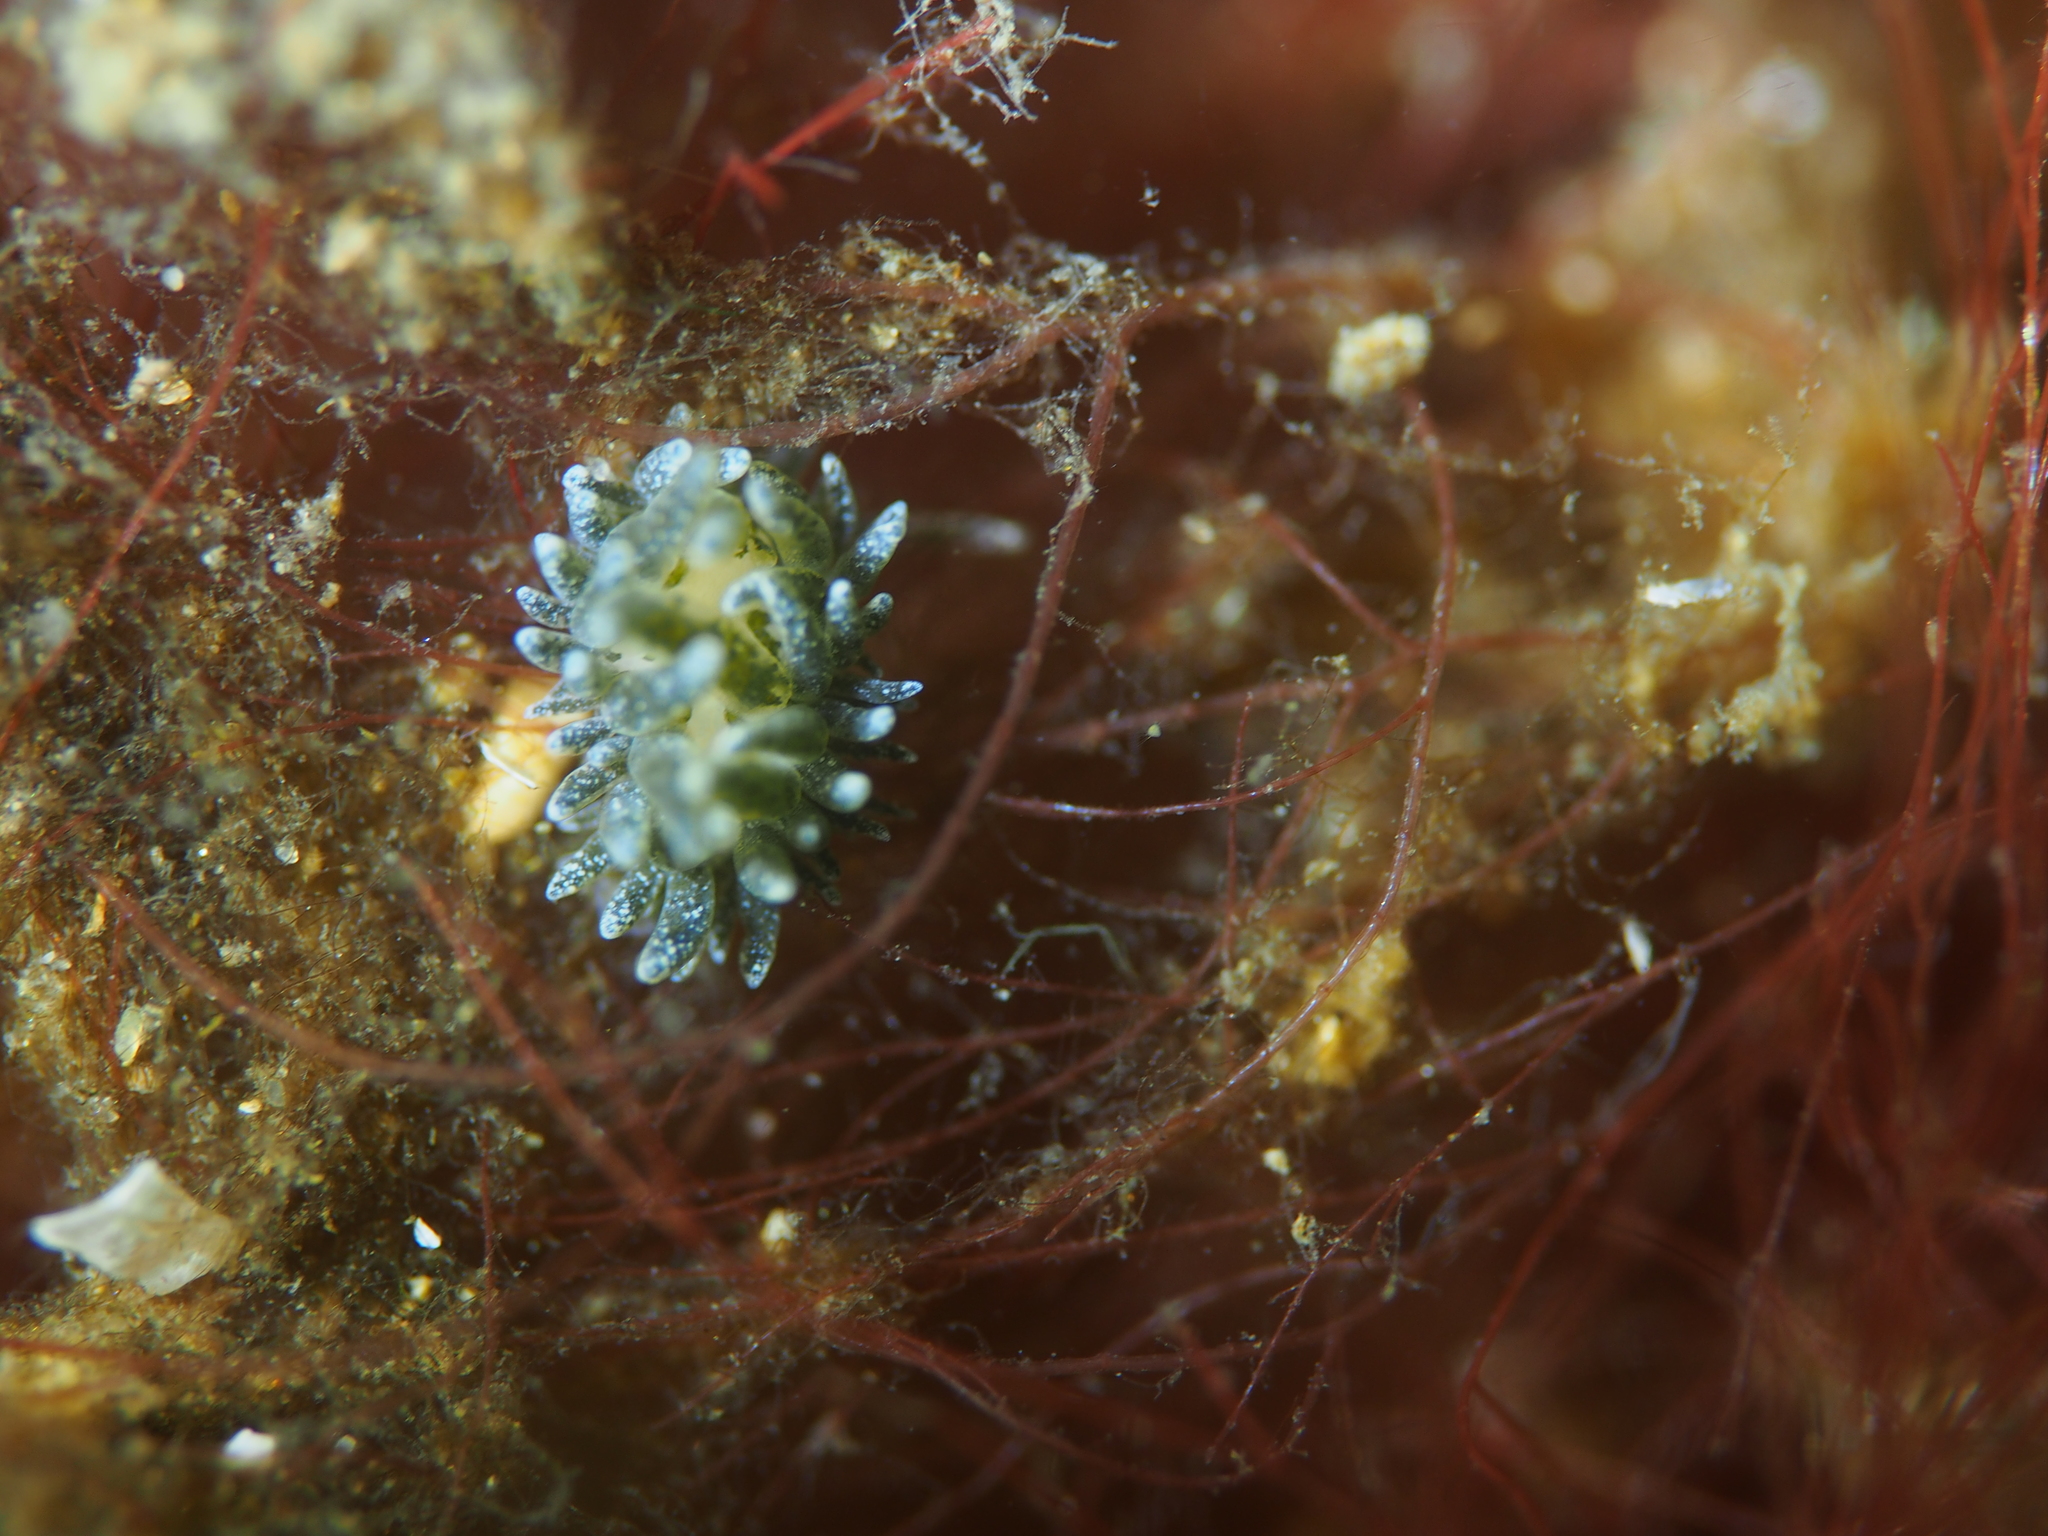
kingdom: Animalia
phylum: Mollusca
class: Gastropoda
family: Limapontiidae
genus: Placida
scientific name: Placida dendritica
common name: Dendritic nudibranch
